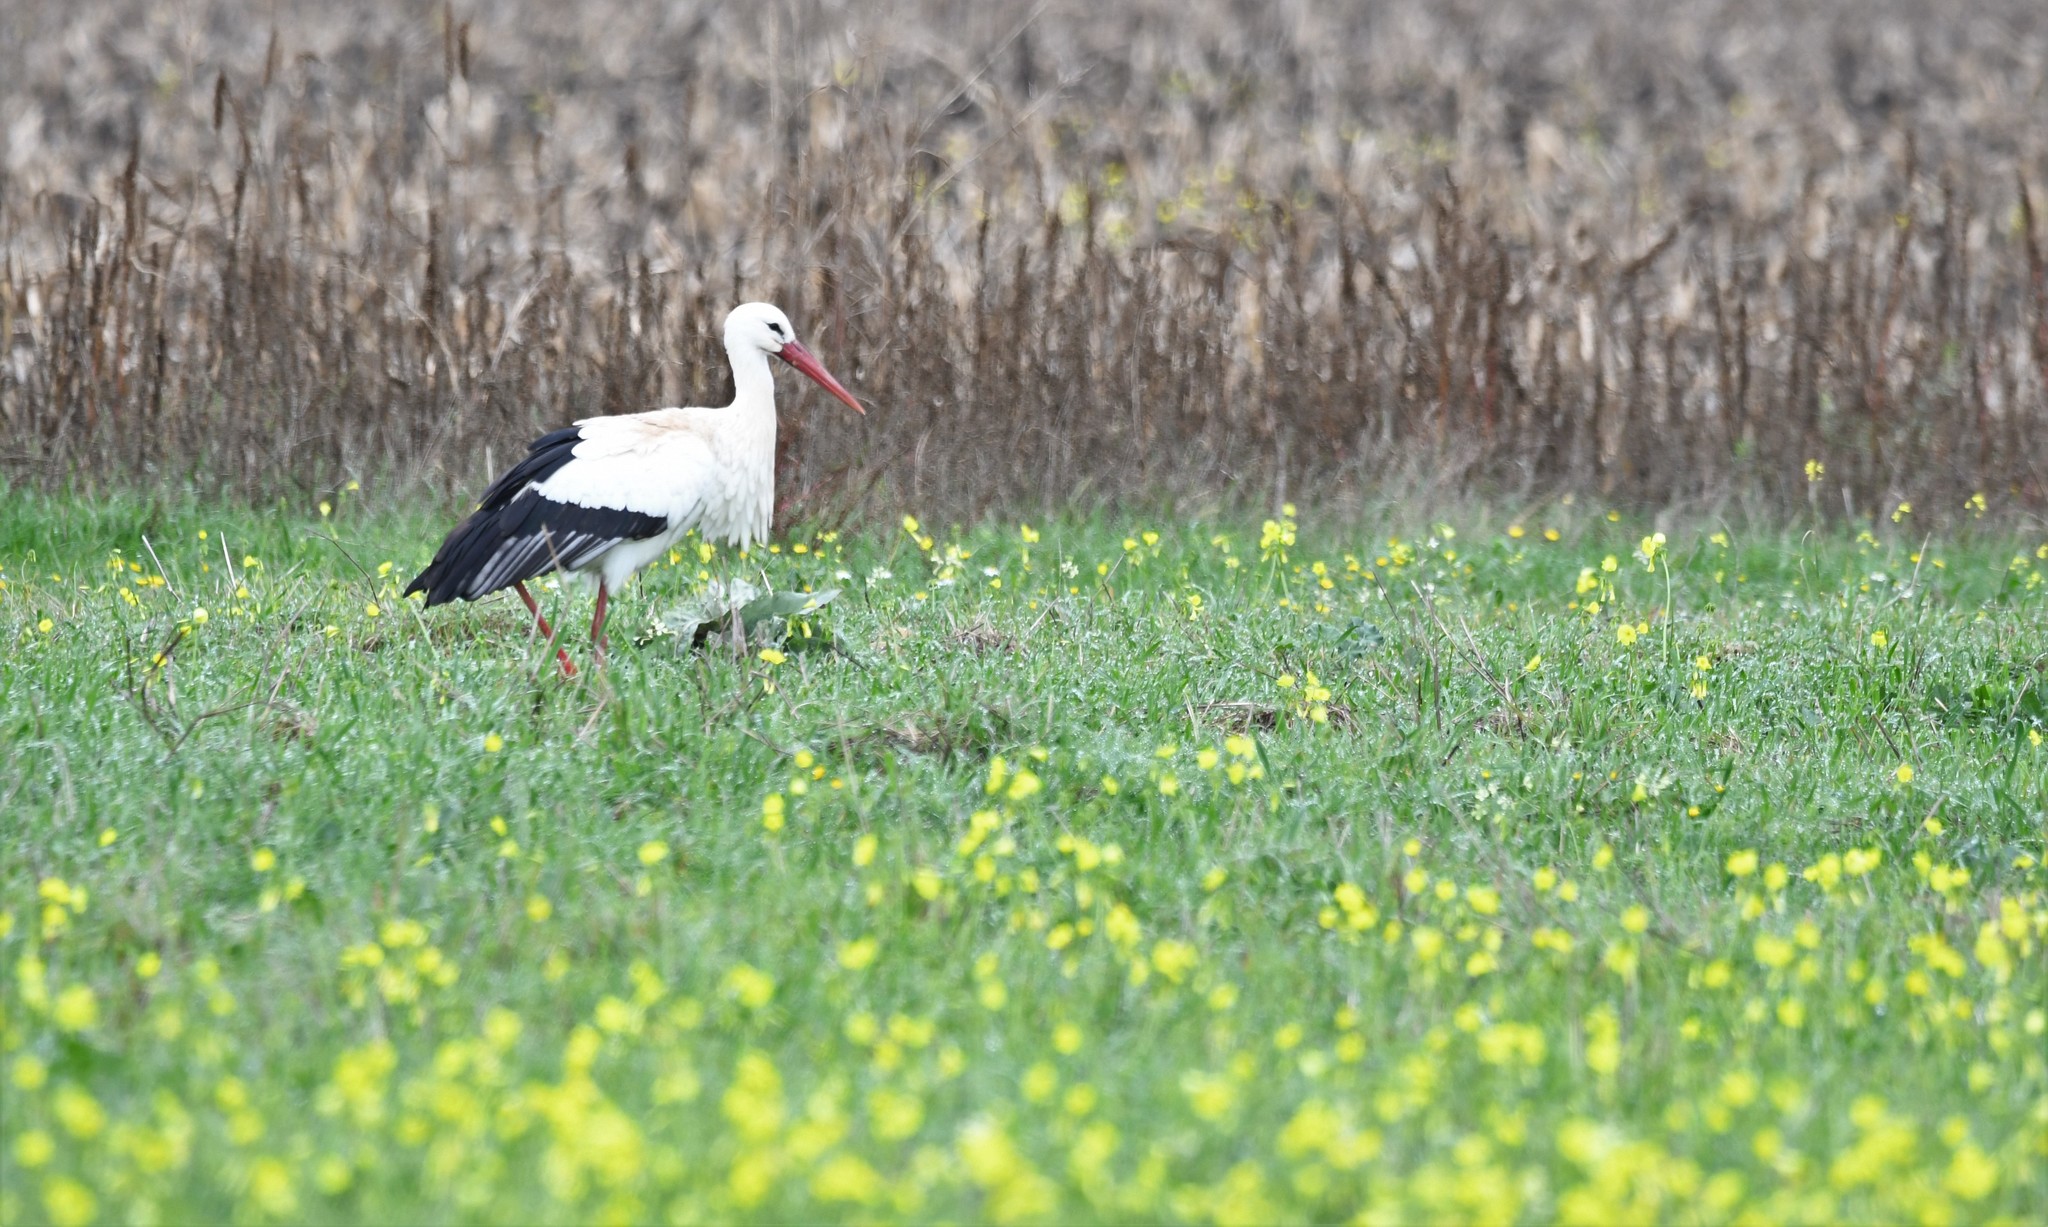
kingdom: Animalia
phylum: Chordata
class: Aves
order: Ciconiiformes
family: Ciconiidae
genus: Ciconia
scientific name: Ciconia ciconia
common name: White stork
